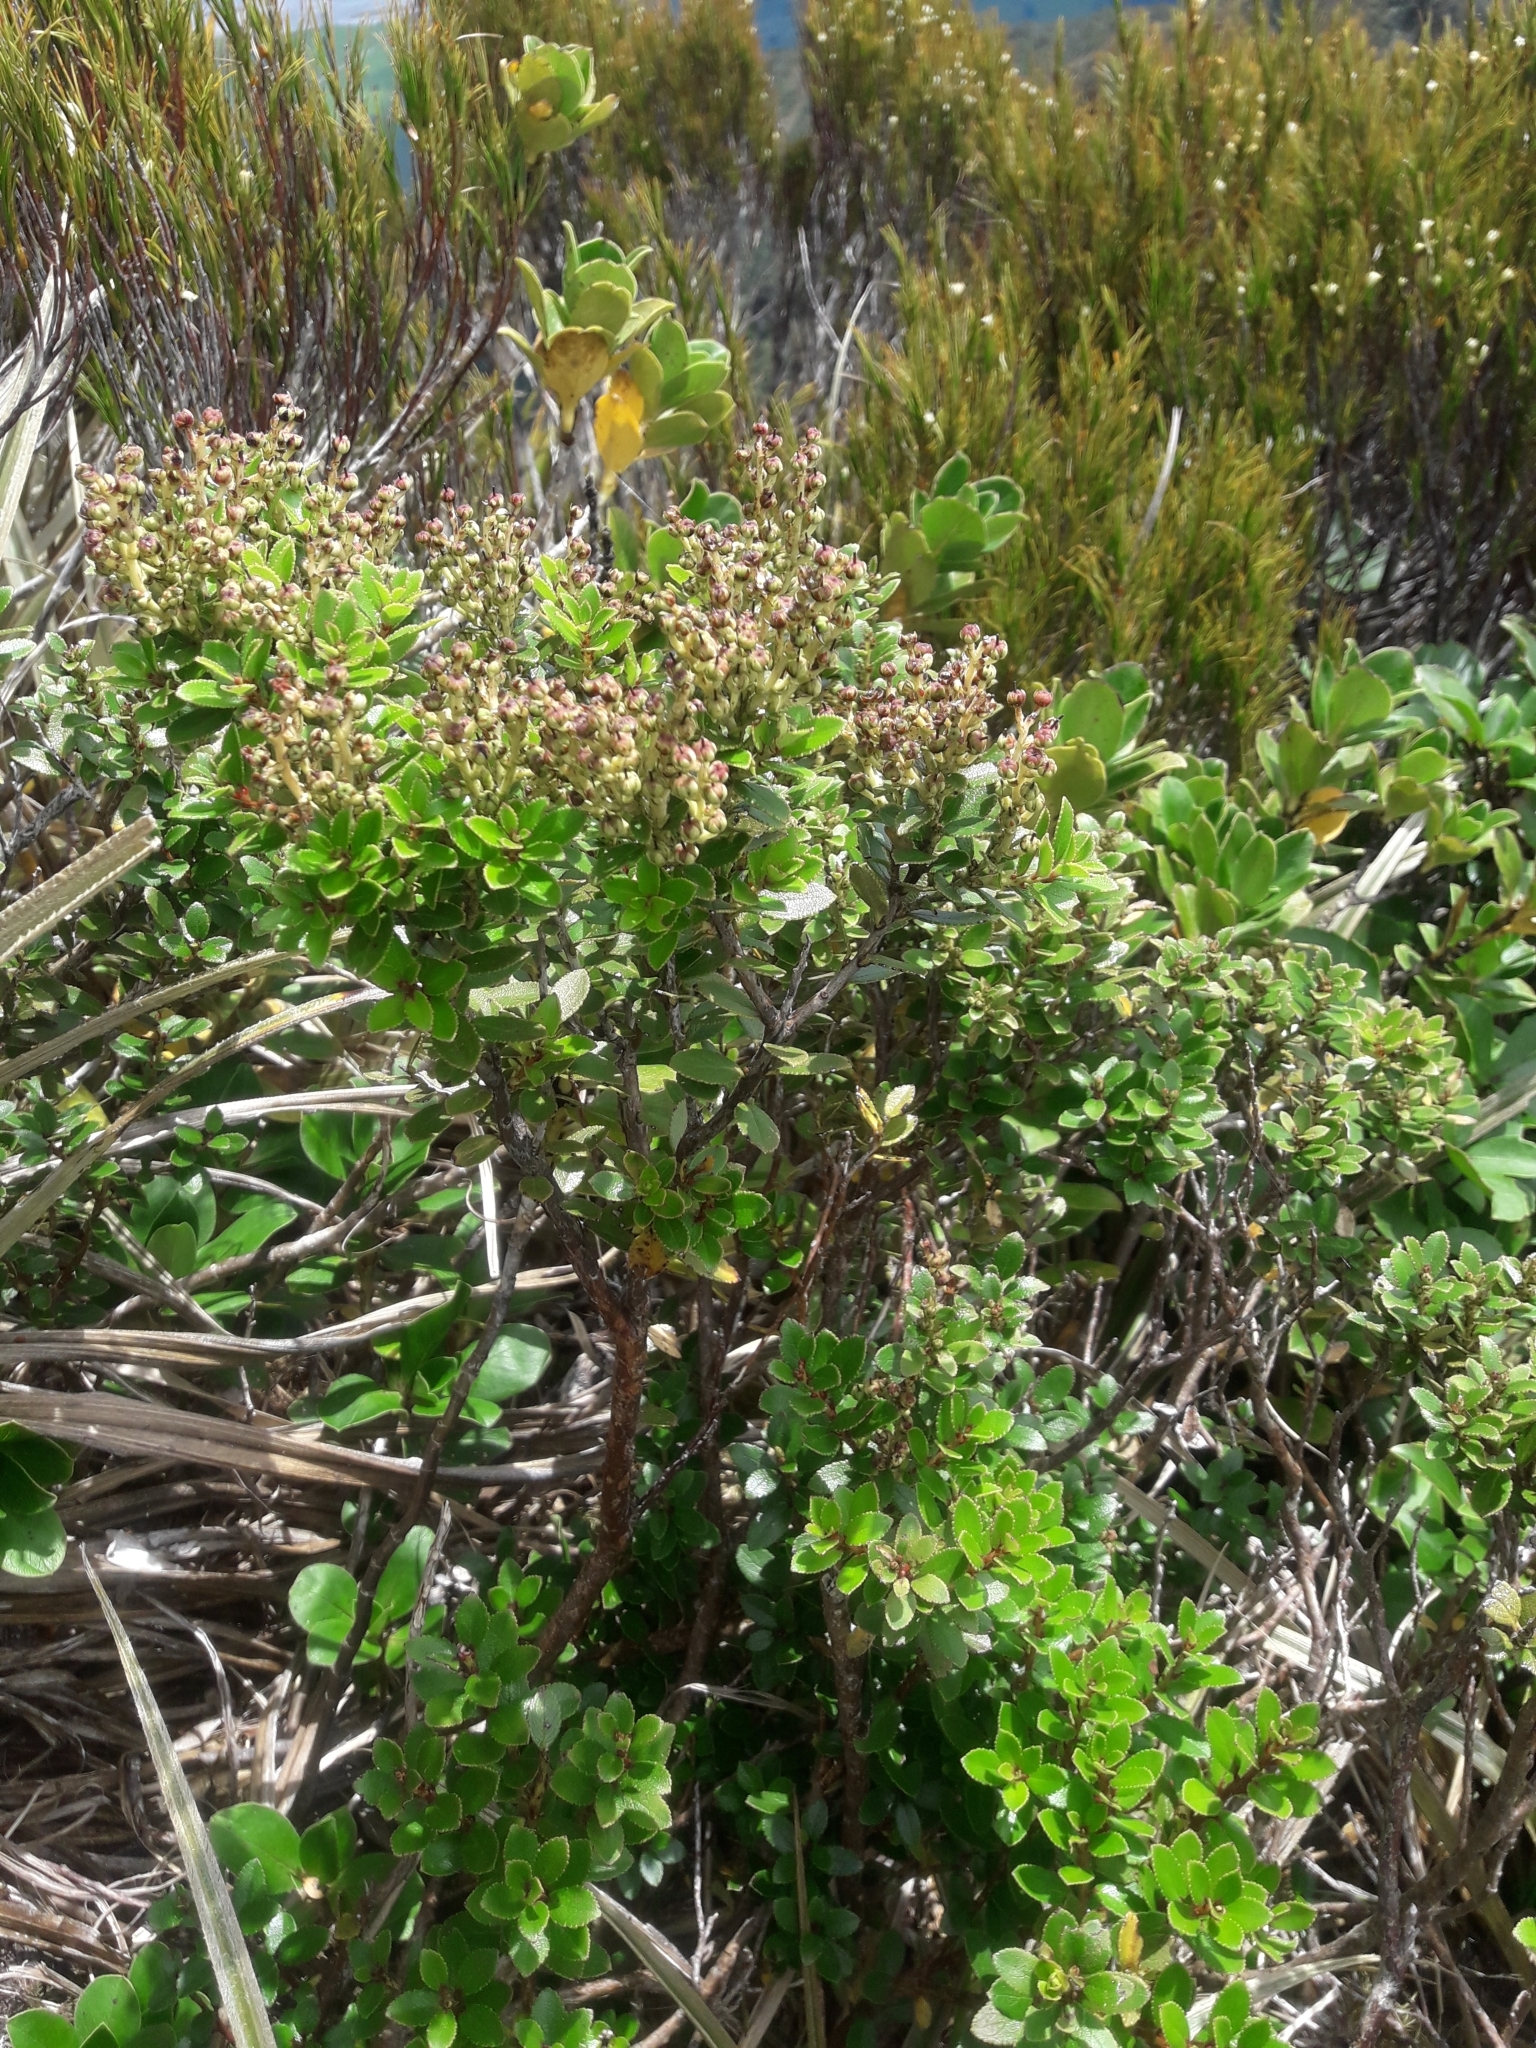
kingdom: Plantae
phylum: Tracheophyta
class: Magnoliopsida
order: Ericales
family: Ericaceae
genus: Gaultheria
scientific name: Gaultheria crassa
